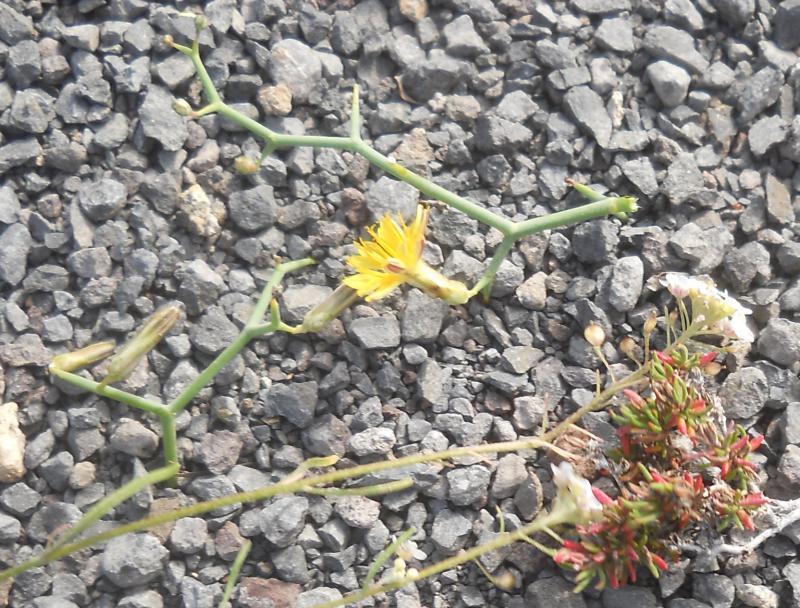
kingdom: Plantae
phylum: Tracheophyta
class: Magnoliopsida
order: Asterales
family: Asteraceae
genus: Launaea
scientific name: Launaea arborescens
